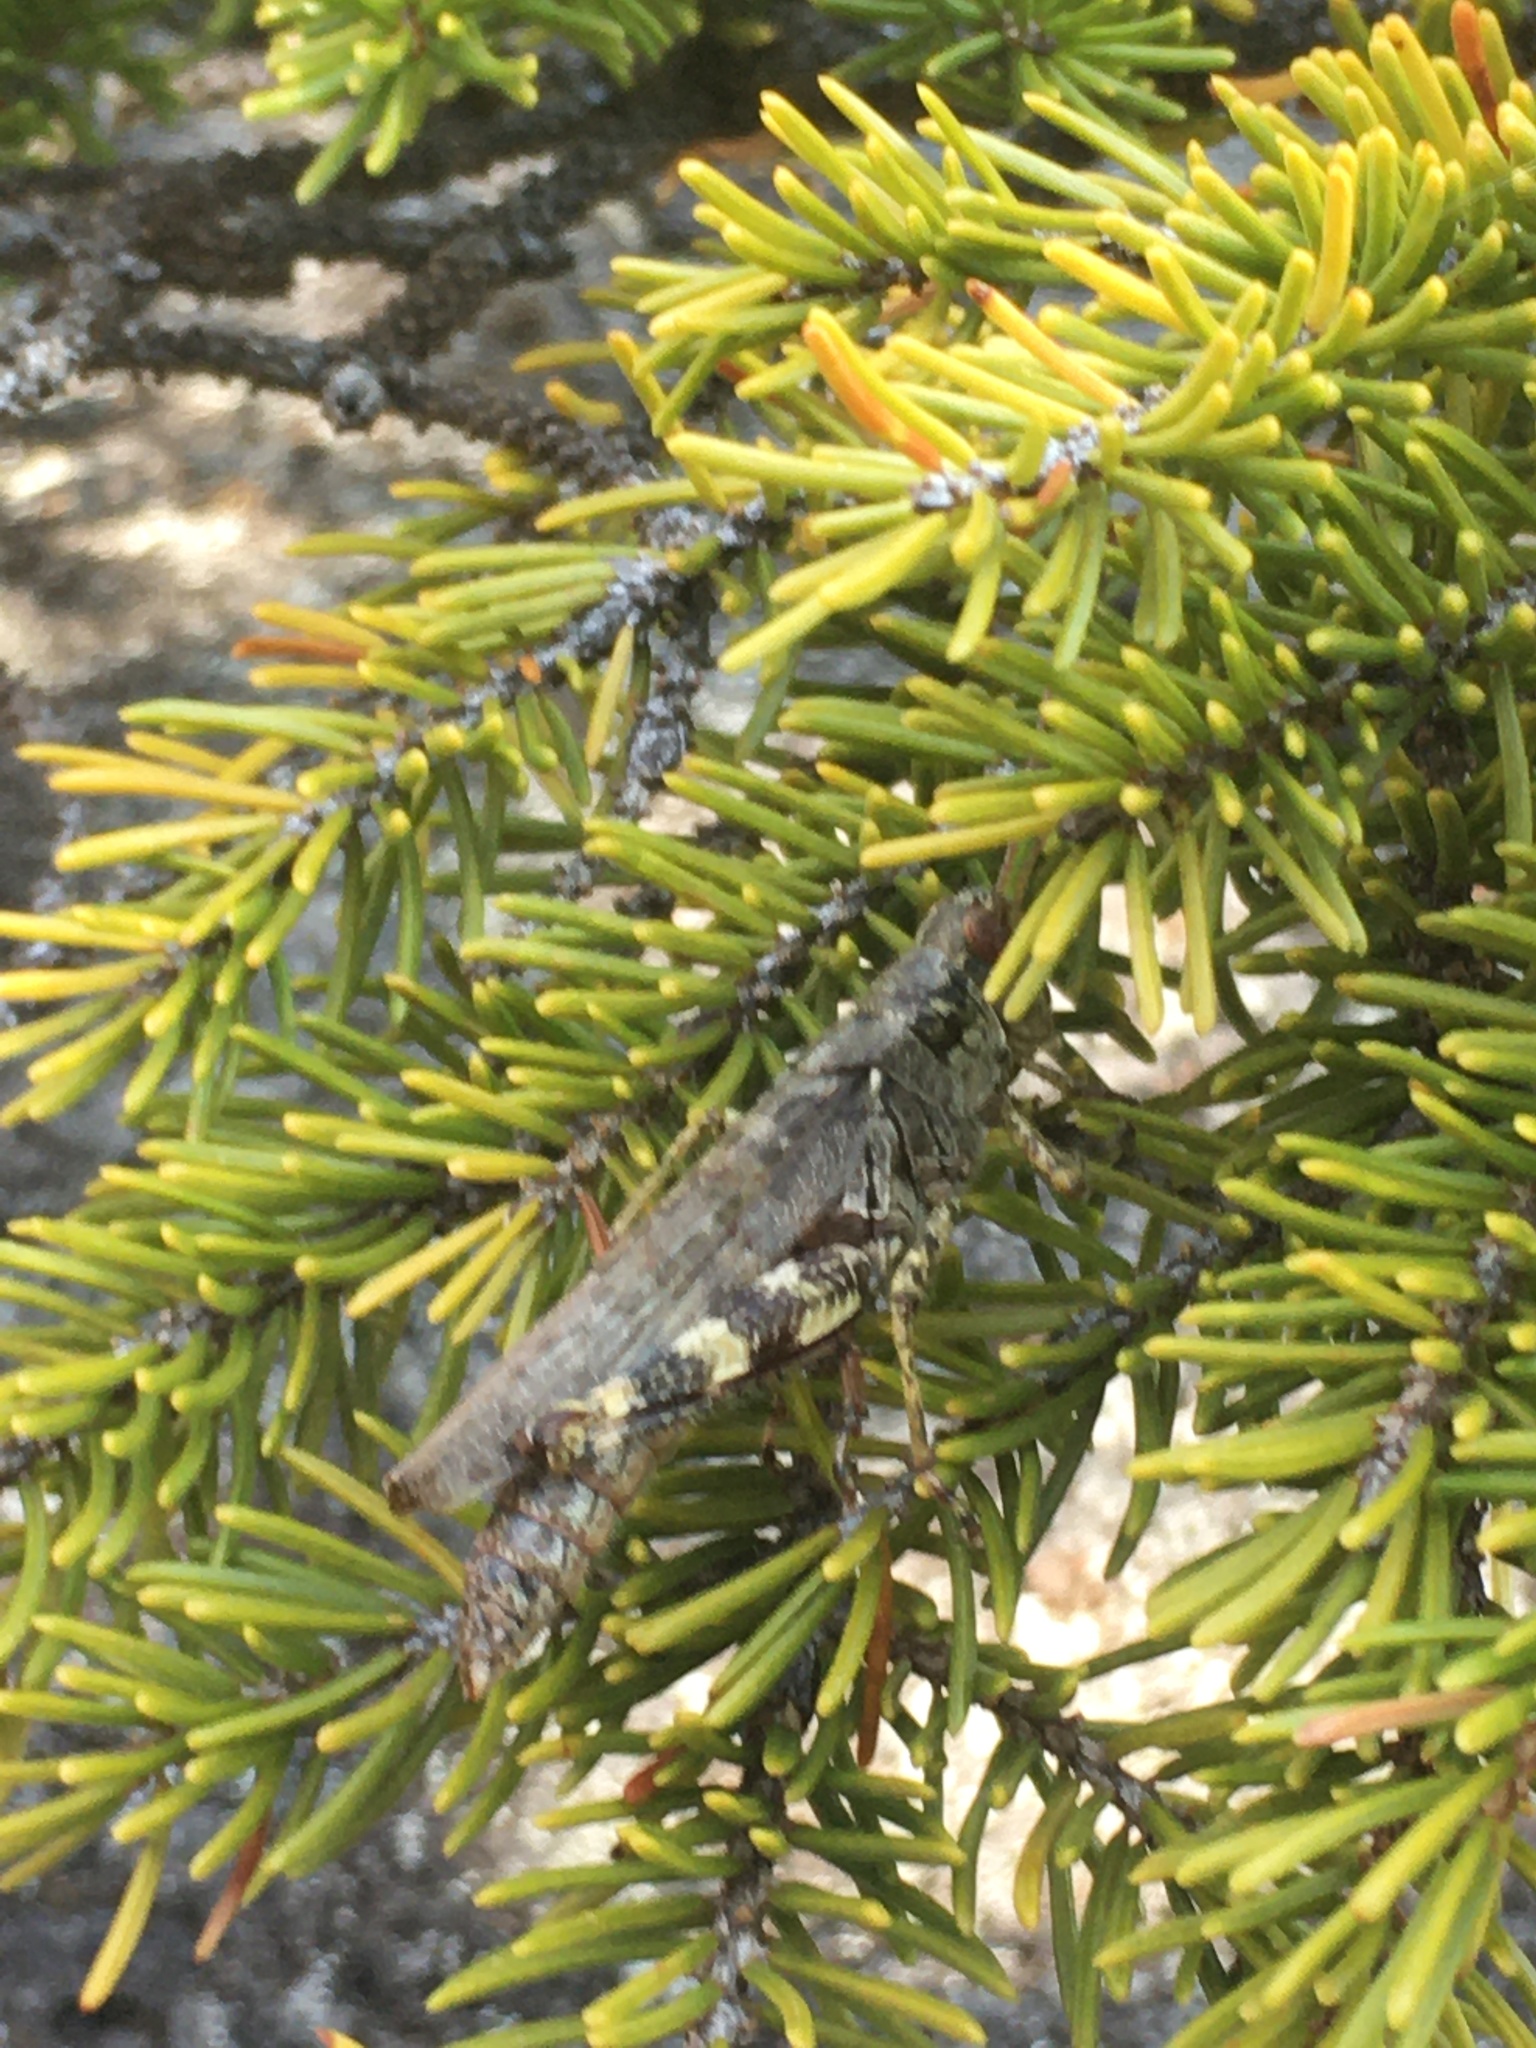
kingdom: Animalia
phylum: Arthropoda
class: Insecta
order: Orthoptera
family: Acrididae
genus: Melanoplus
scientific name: Melanoplus punctulatus
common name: Pine-tree spur-throat grasshopper
